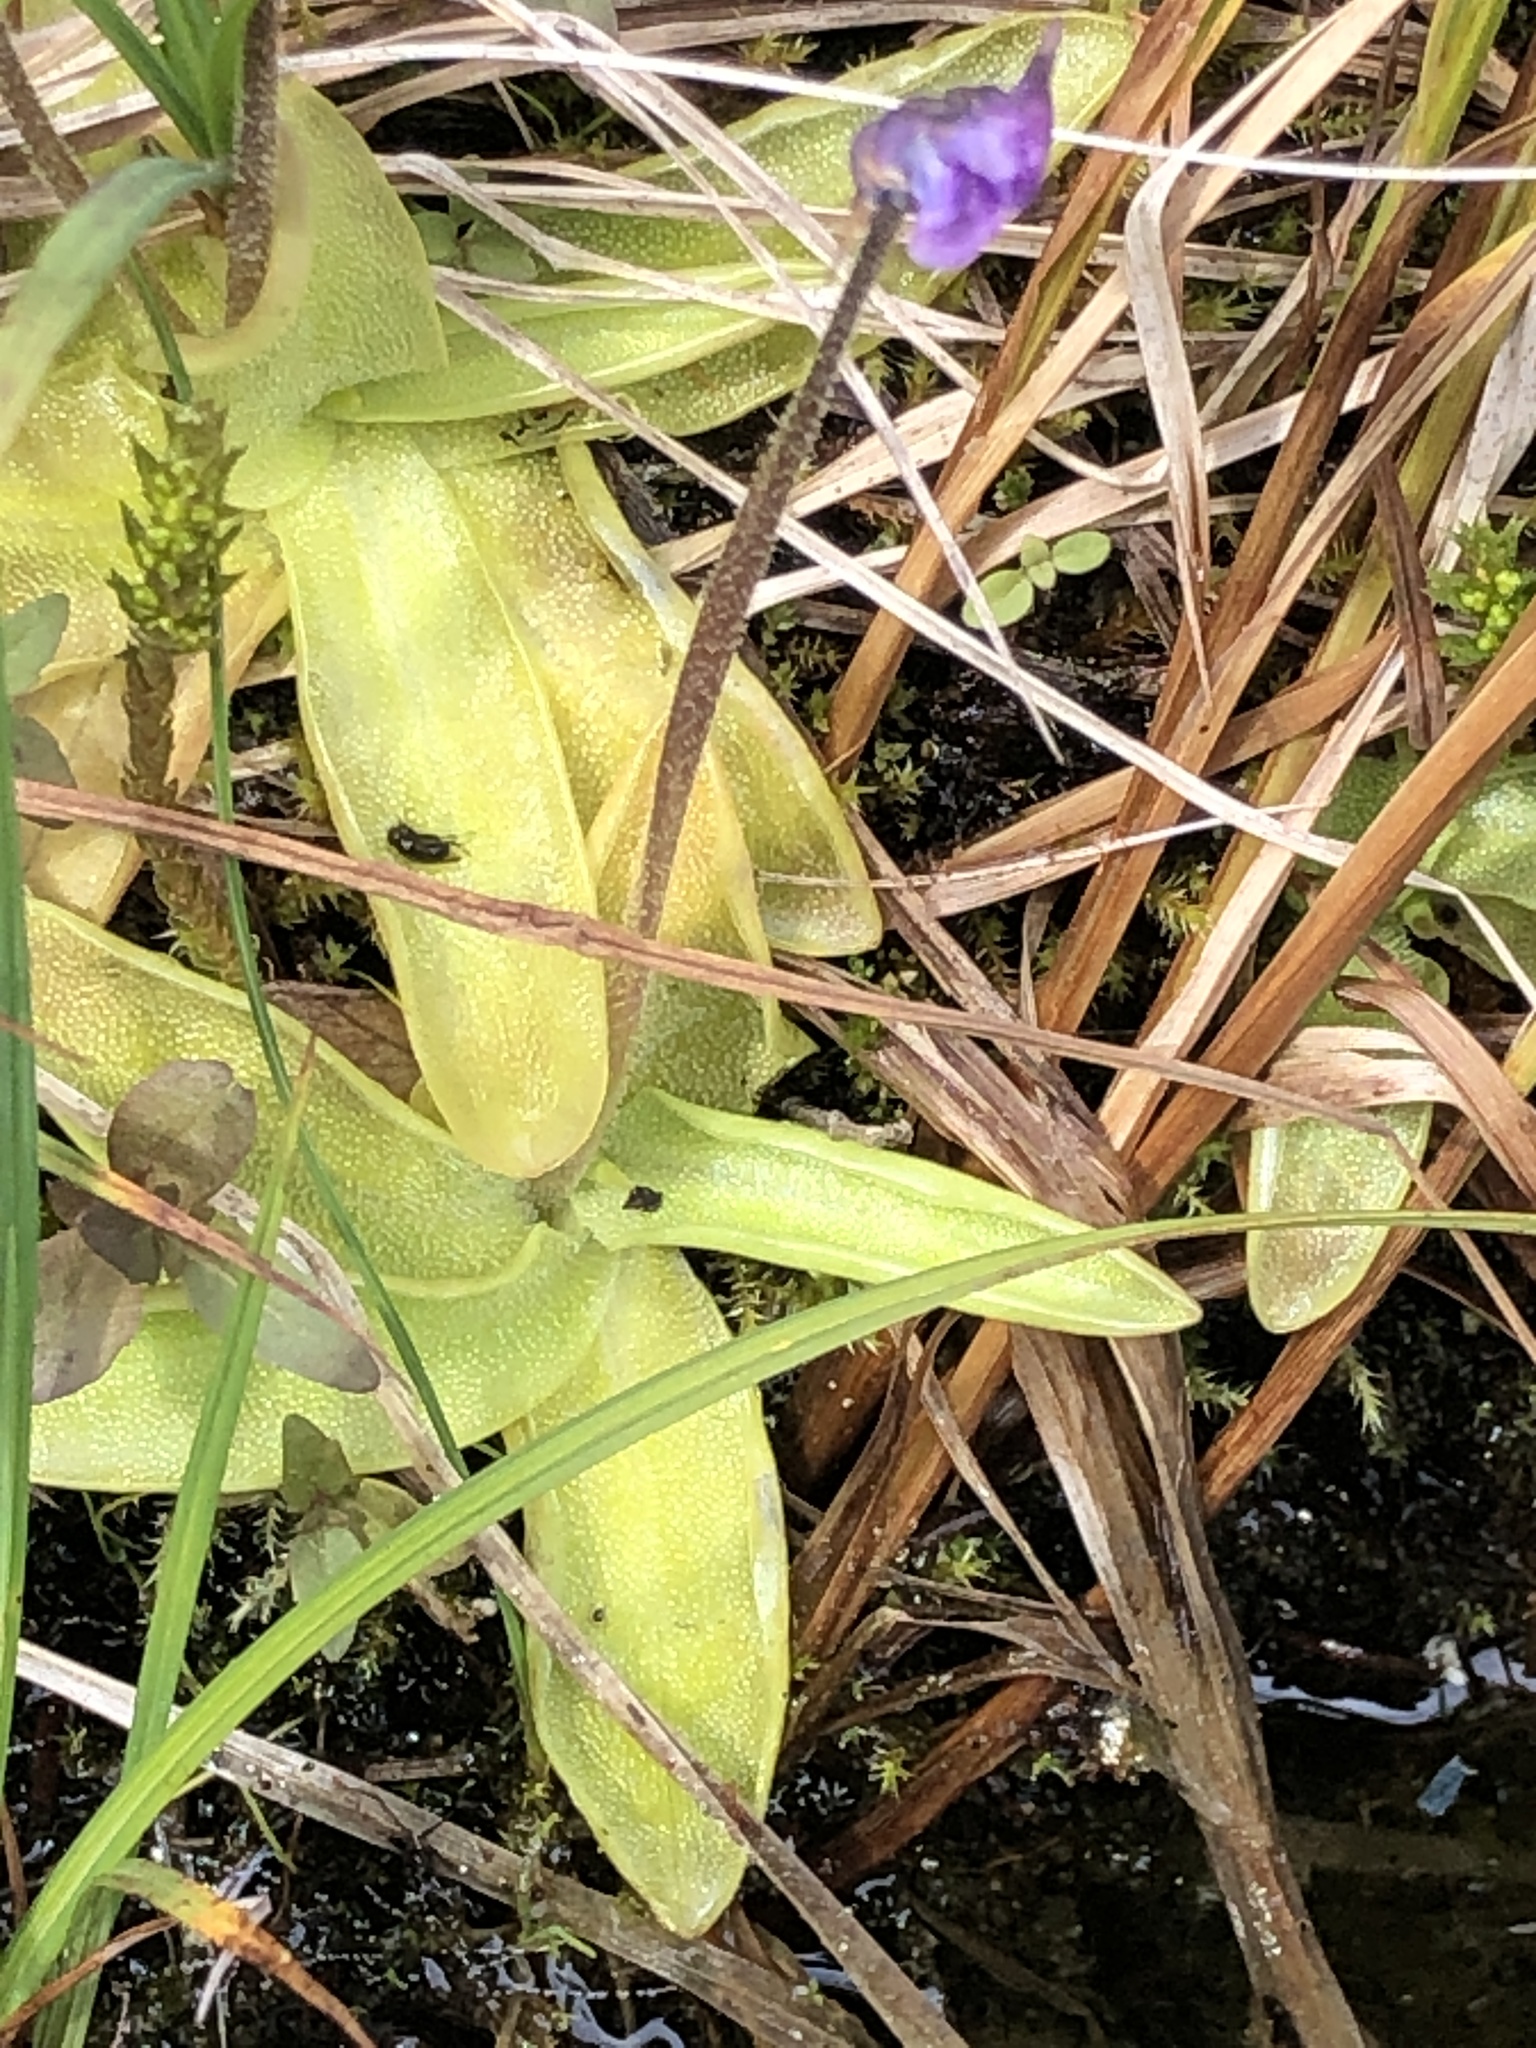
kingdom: Plantae
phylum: Tracheophyta
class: Magnoliopsida
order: Lamiales
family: Lentibulariaceae
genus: Pinguicula
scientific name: Pinguicula vulgaris
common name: Common butterwort
